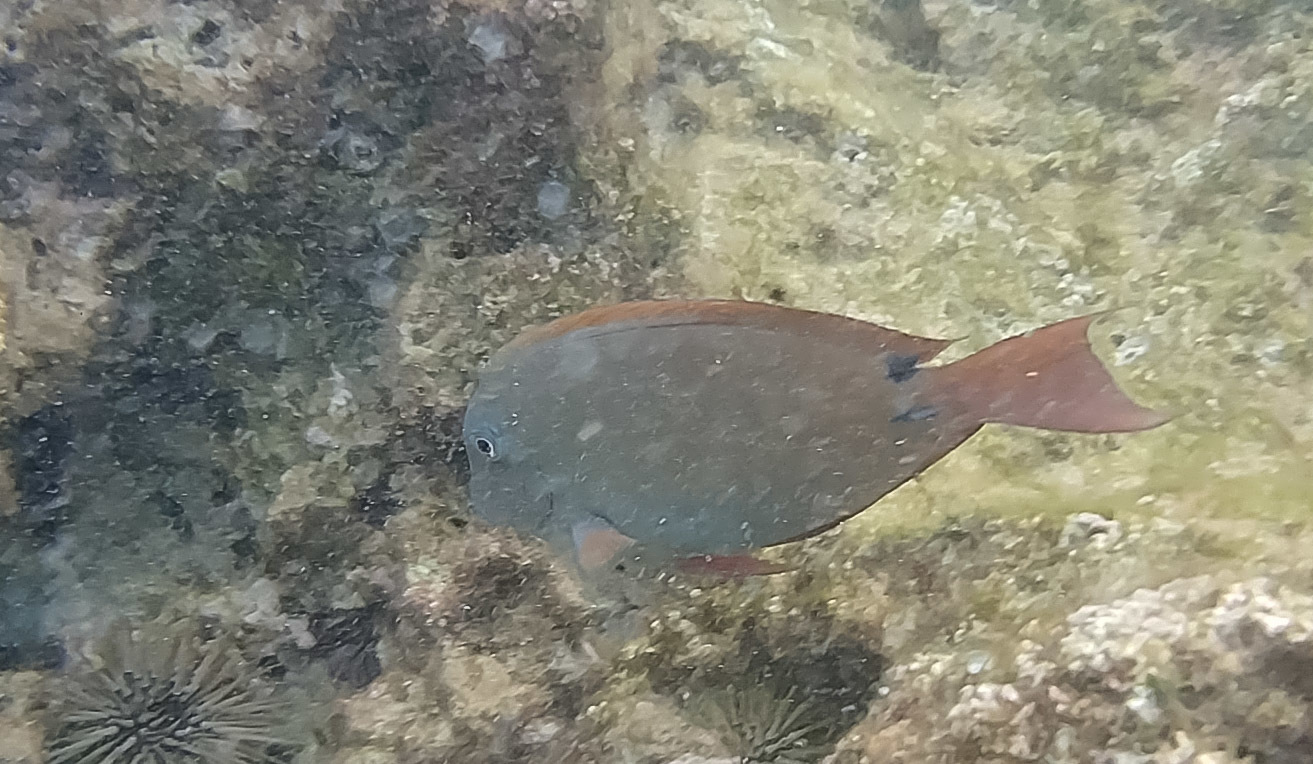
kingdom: Animalia
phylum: Chordata
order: Perciformes
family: Acanthuridae
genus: Acanthurus
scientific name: Acanthurus nigrofuscus
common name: Blackspot surgeonfish
